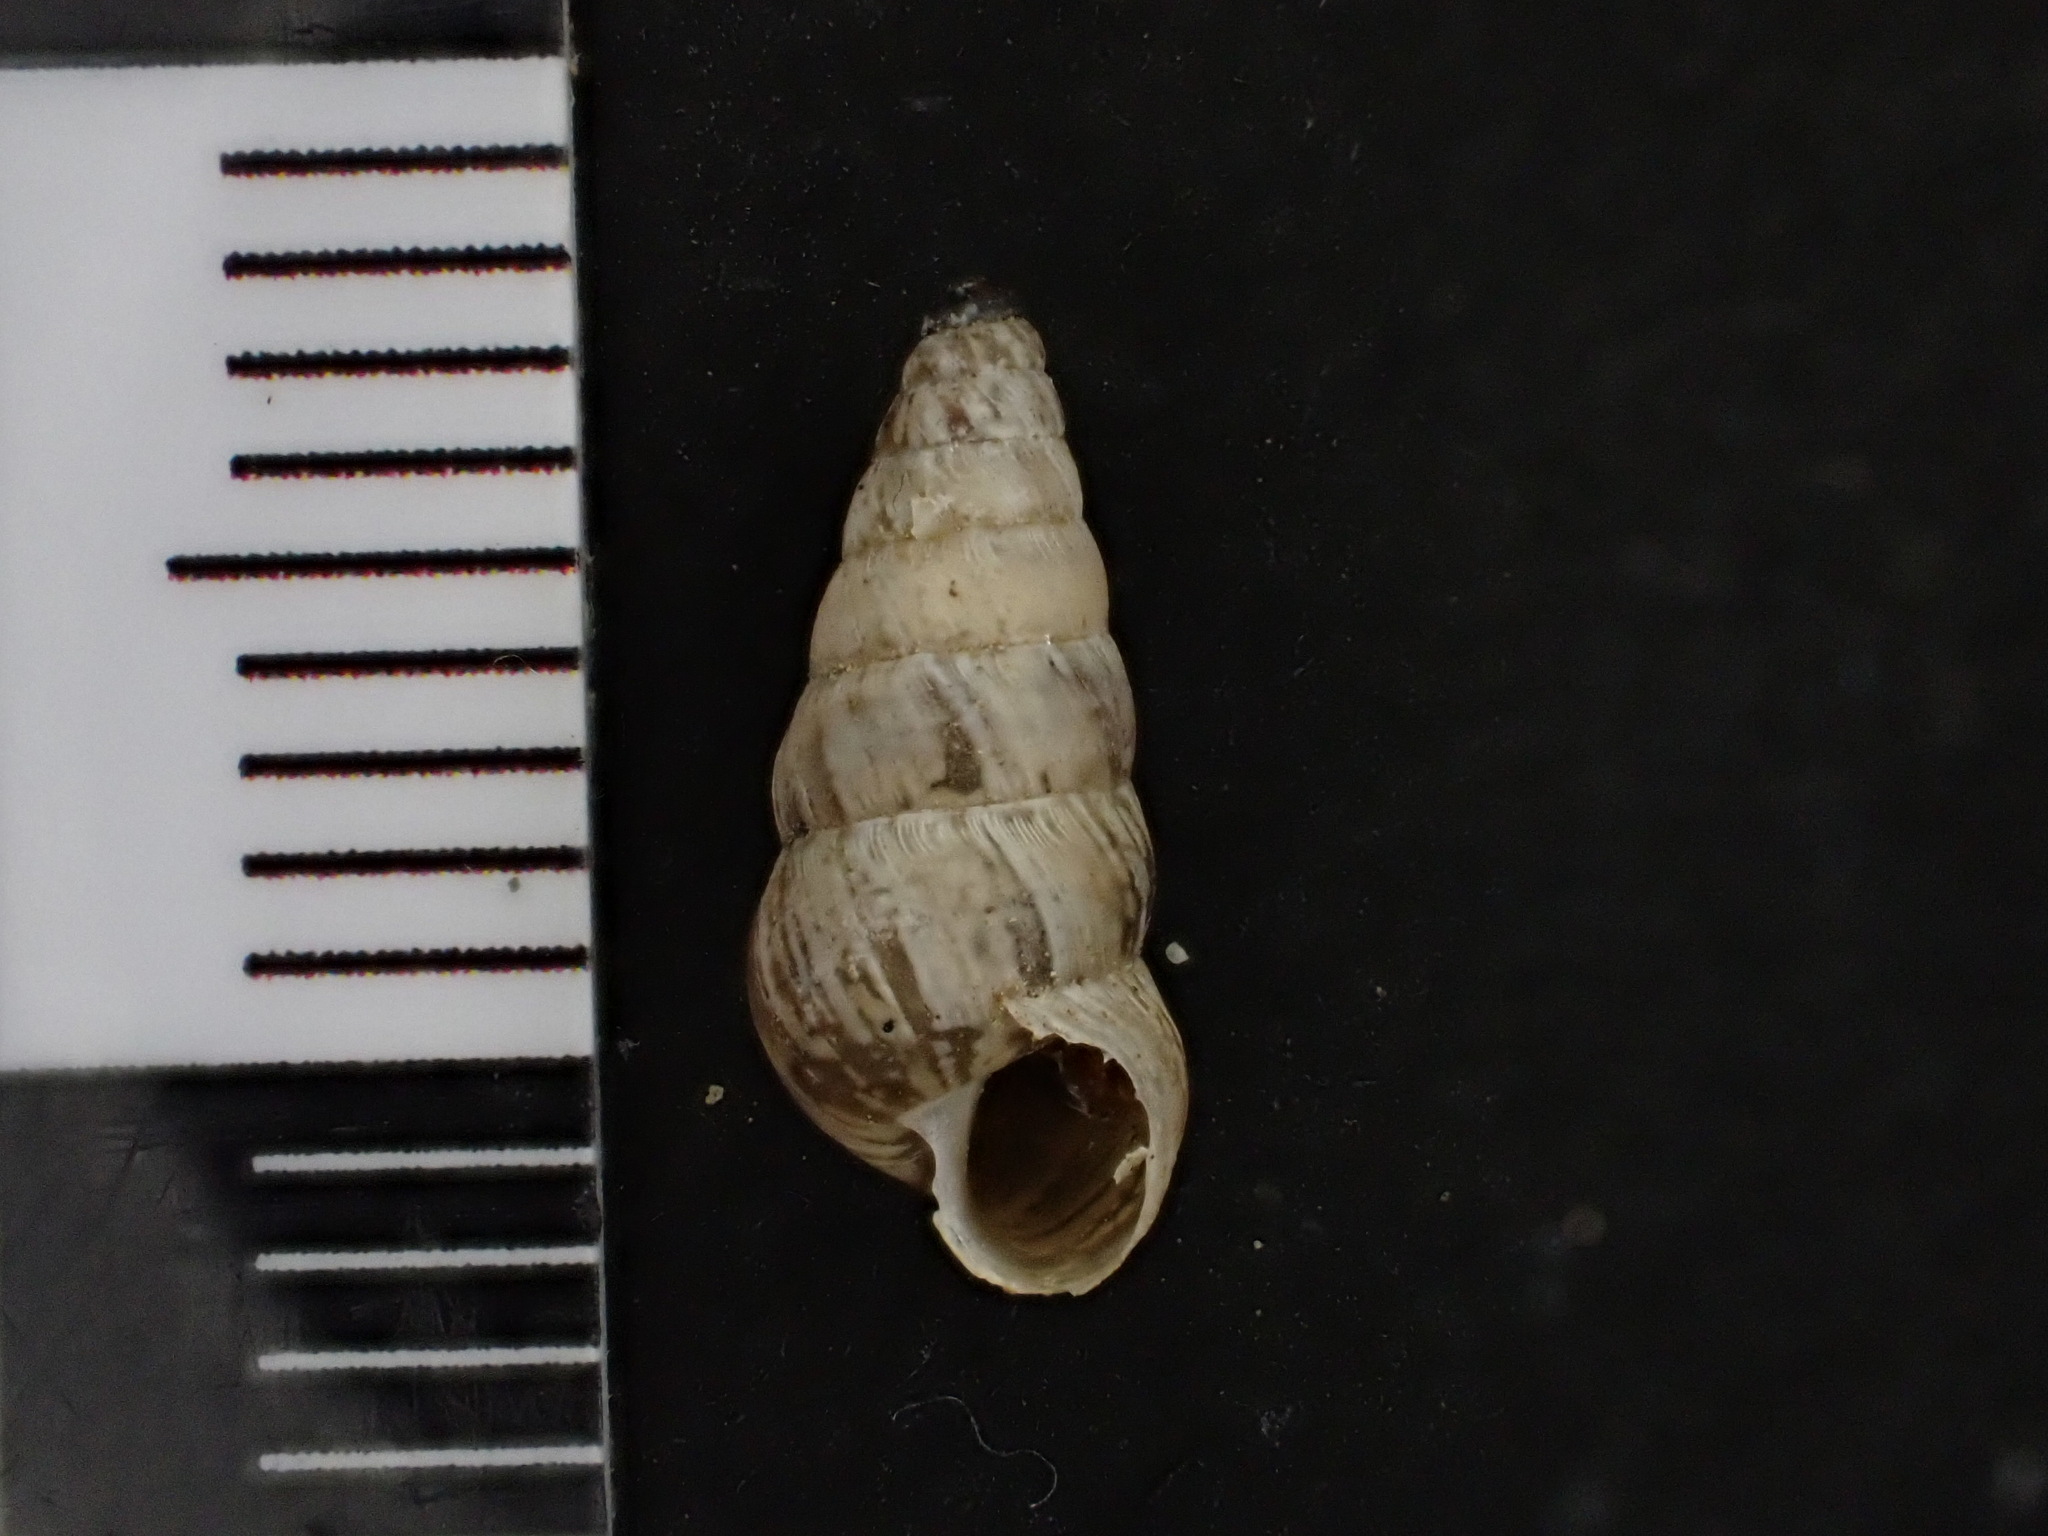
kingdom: Animalia
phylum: Mollusca
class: Gastropoda
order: Stylommatophora
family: Geomitridae
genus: Cochlicella
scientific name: Cochlicella acuta
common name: Pointed snail
